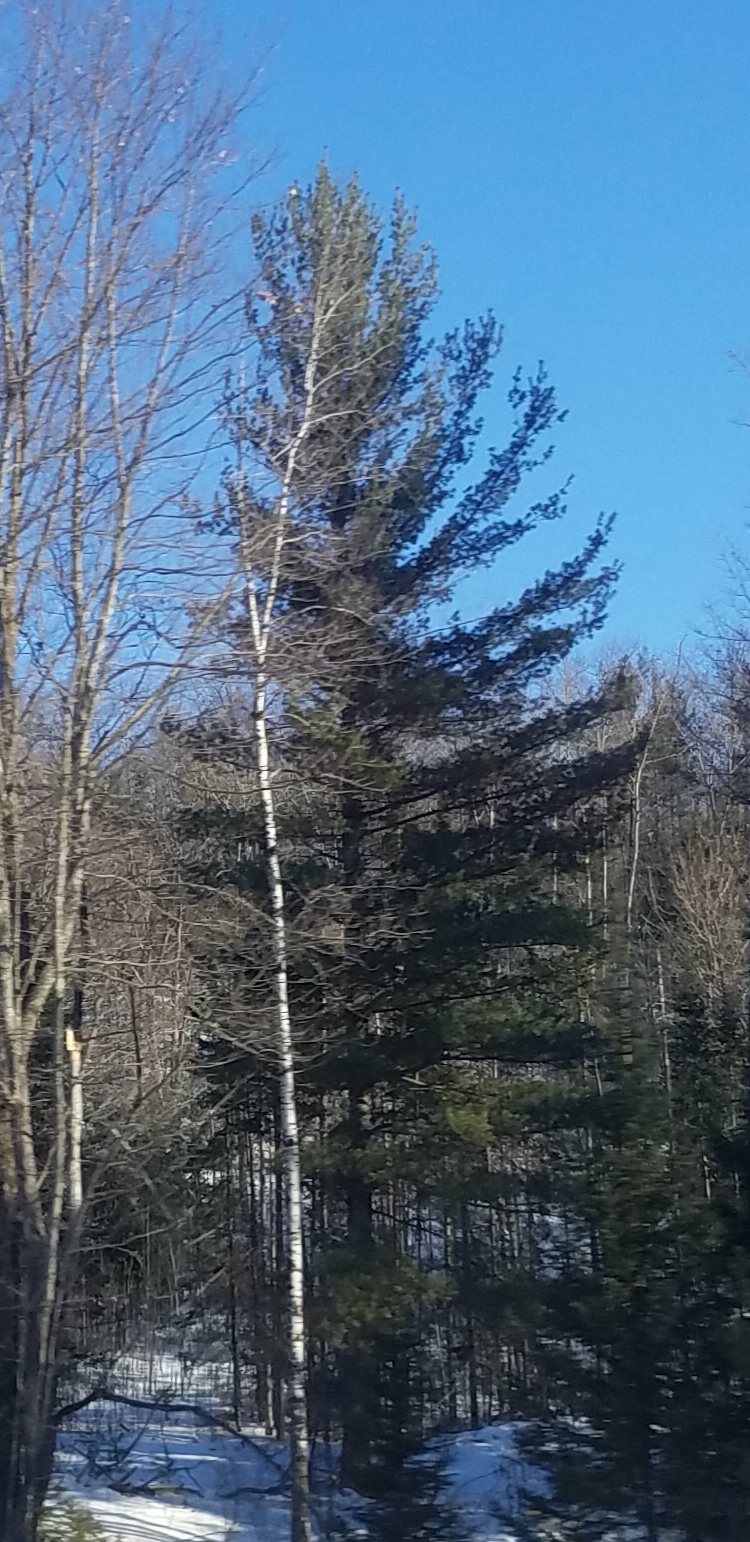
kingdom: Plantae
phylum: Tracheophyta
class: Pinopsida
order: Pinales
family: Pinaceae
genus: Pinus
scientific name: Pinus strobus
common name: Weymouth pine
